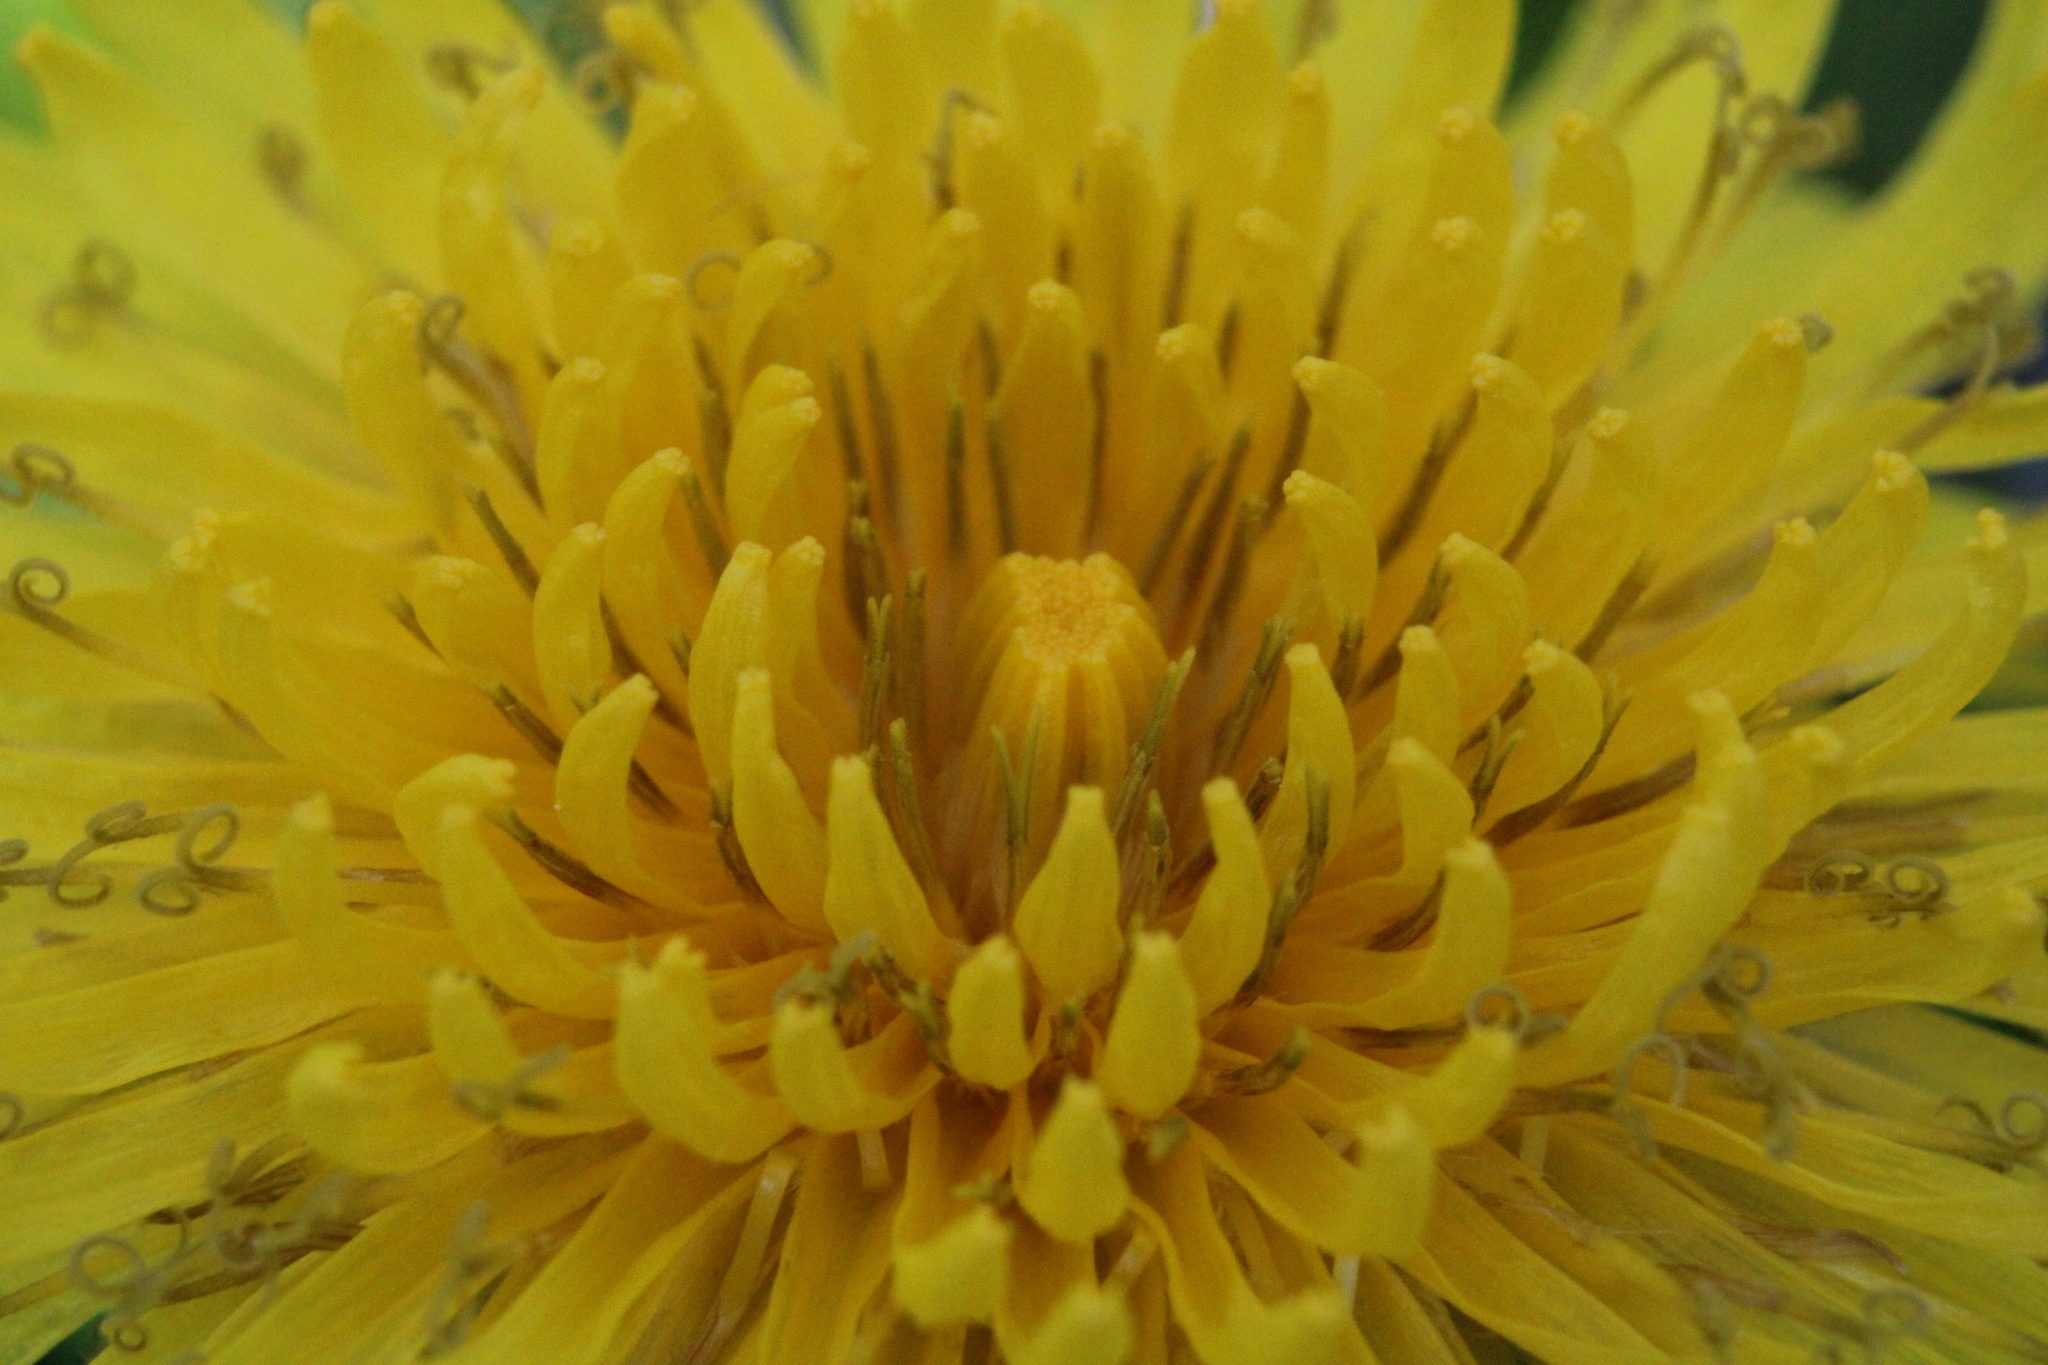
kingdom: Plantae
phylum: Tracheophyta
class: Magnoliopsida
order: Asterales
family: Asteraceae
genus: Taraxacum
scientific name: Taraxacum
